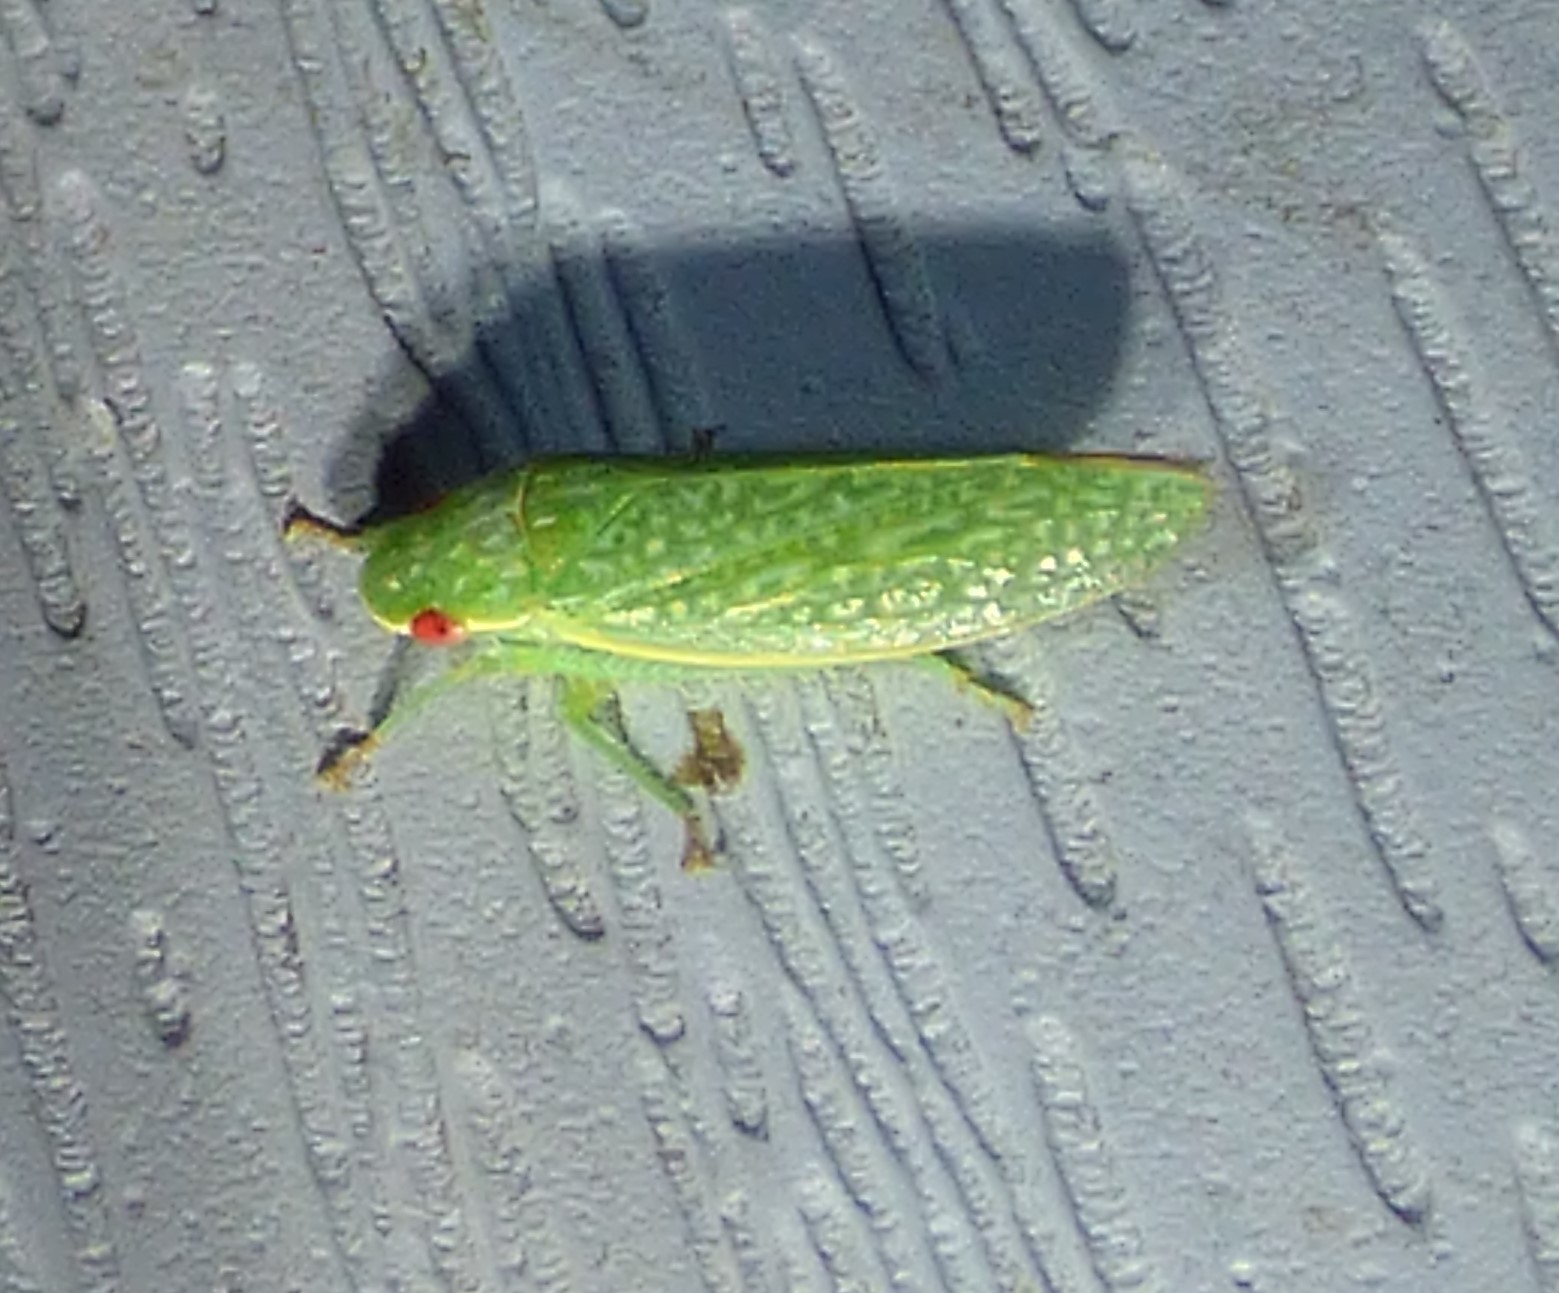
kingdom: Animalia
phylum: Arthropoda
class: Insecta
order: Hemiptera
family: Cicadellidae
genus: Rugosana
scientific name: Rugosana querci
